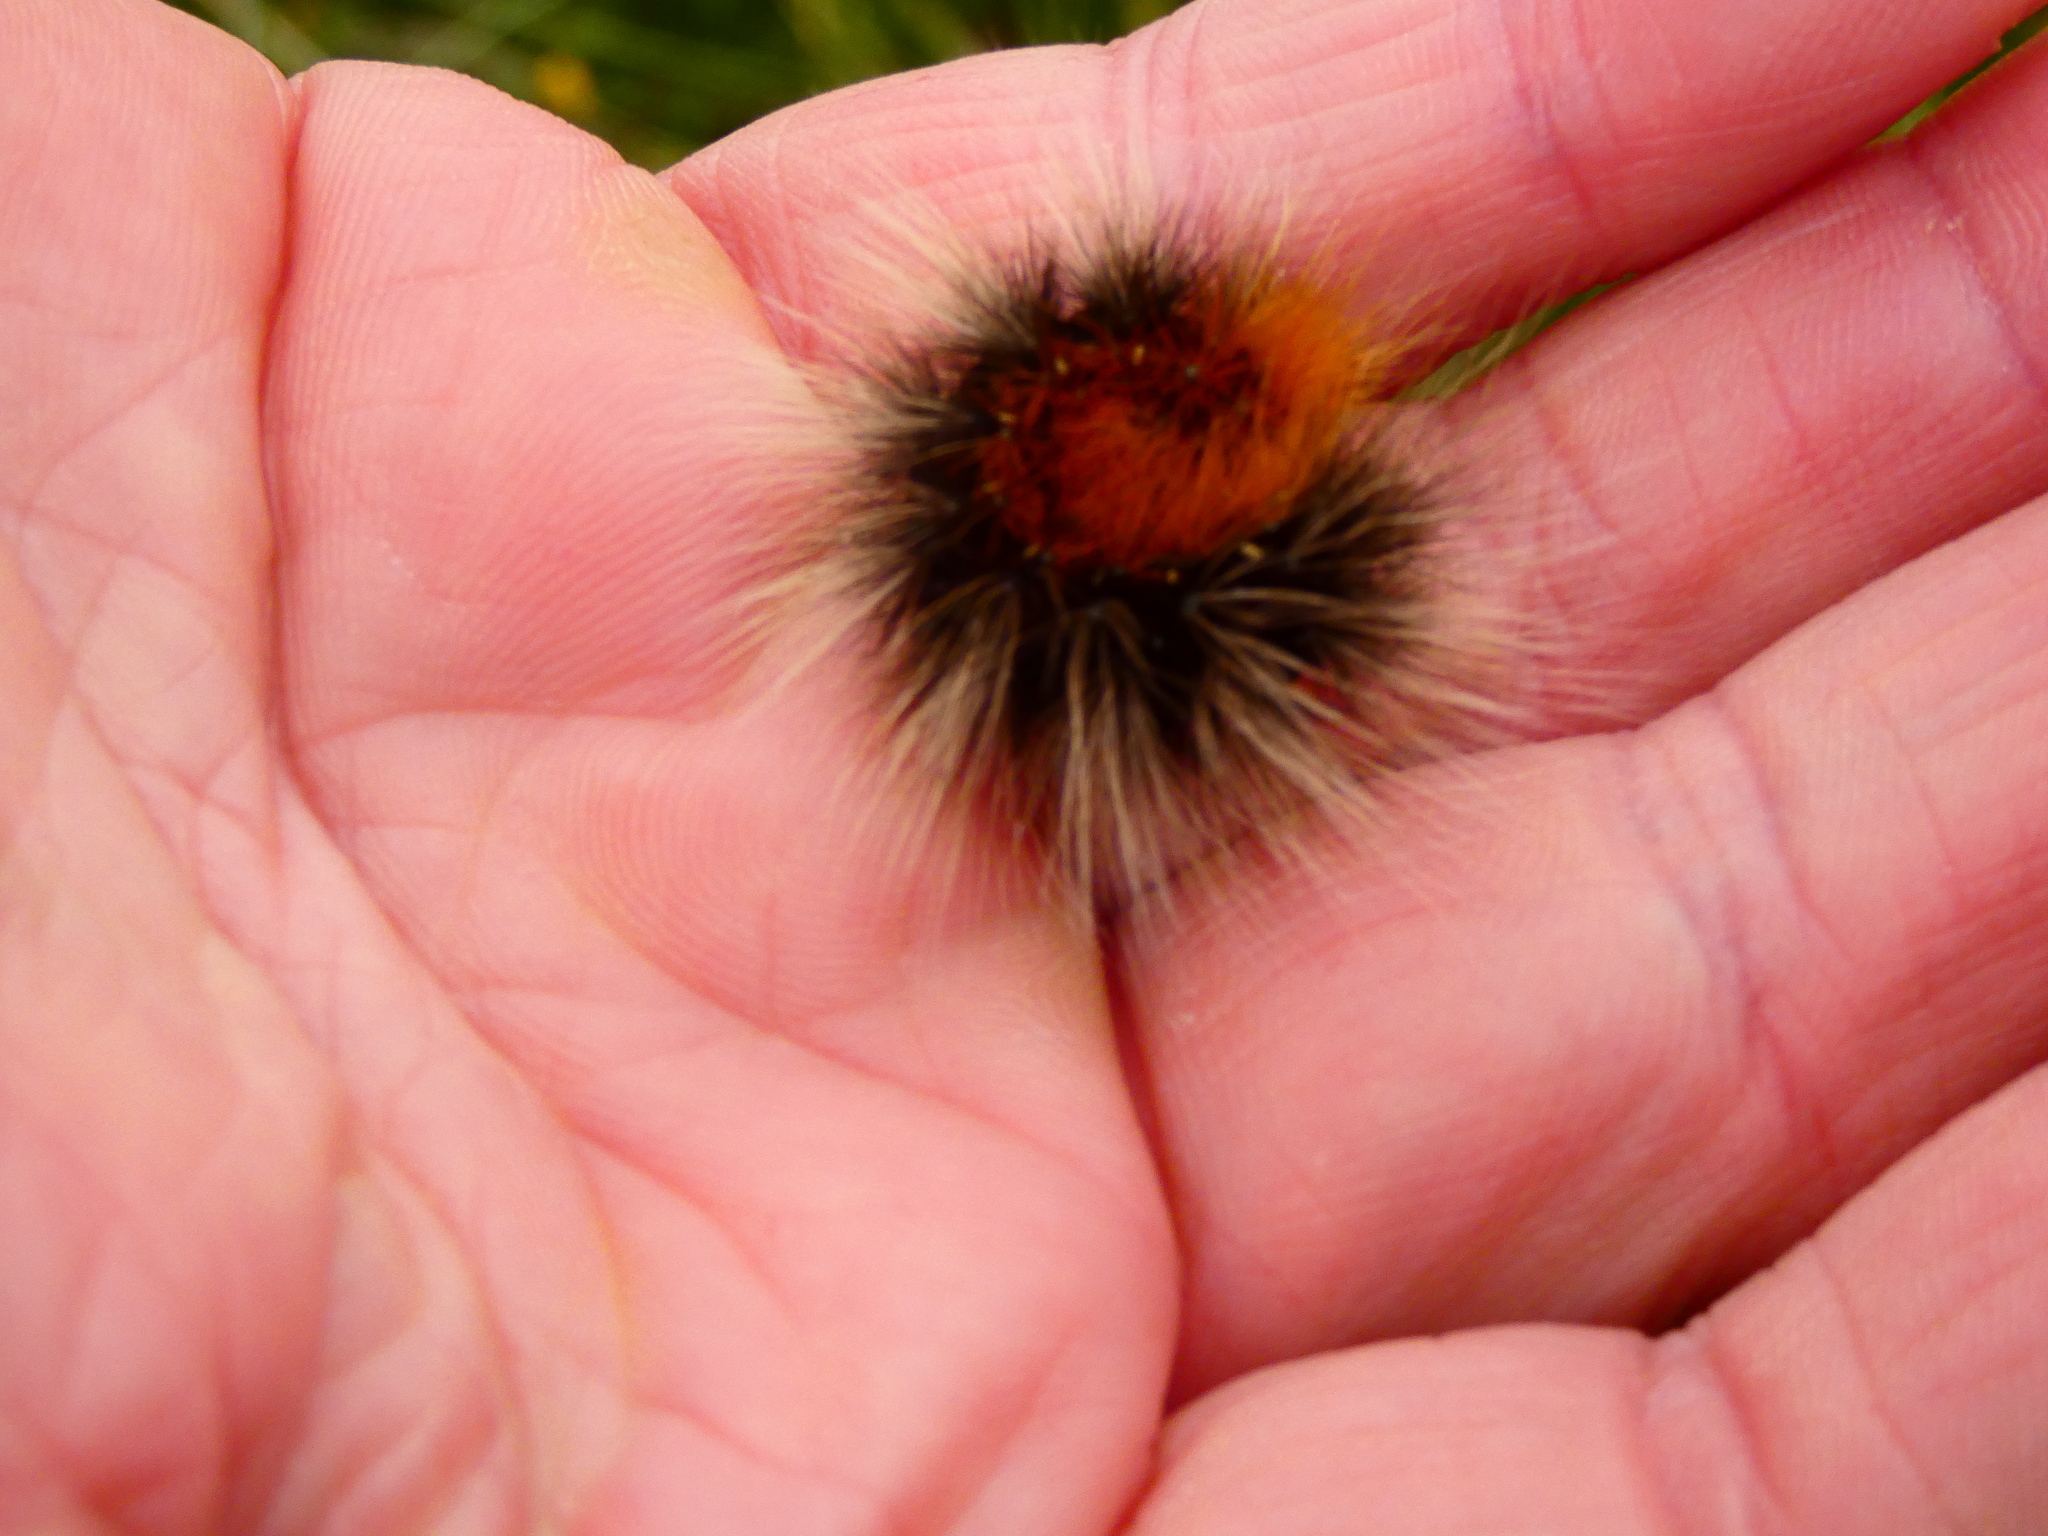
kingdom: Animalia
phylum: Arthropoda
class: Insecta
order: Lepidoptera
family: Erebidae
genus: Arctia
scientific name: Arctia caja
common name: Garden tiger
